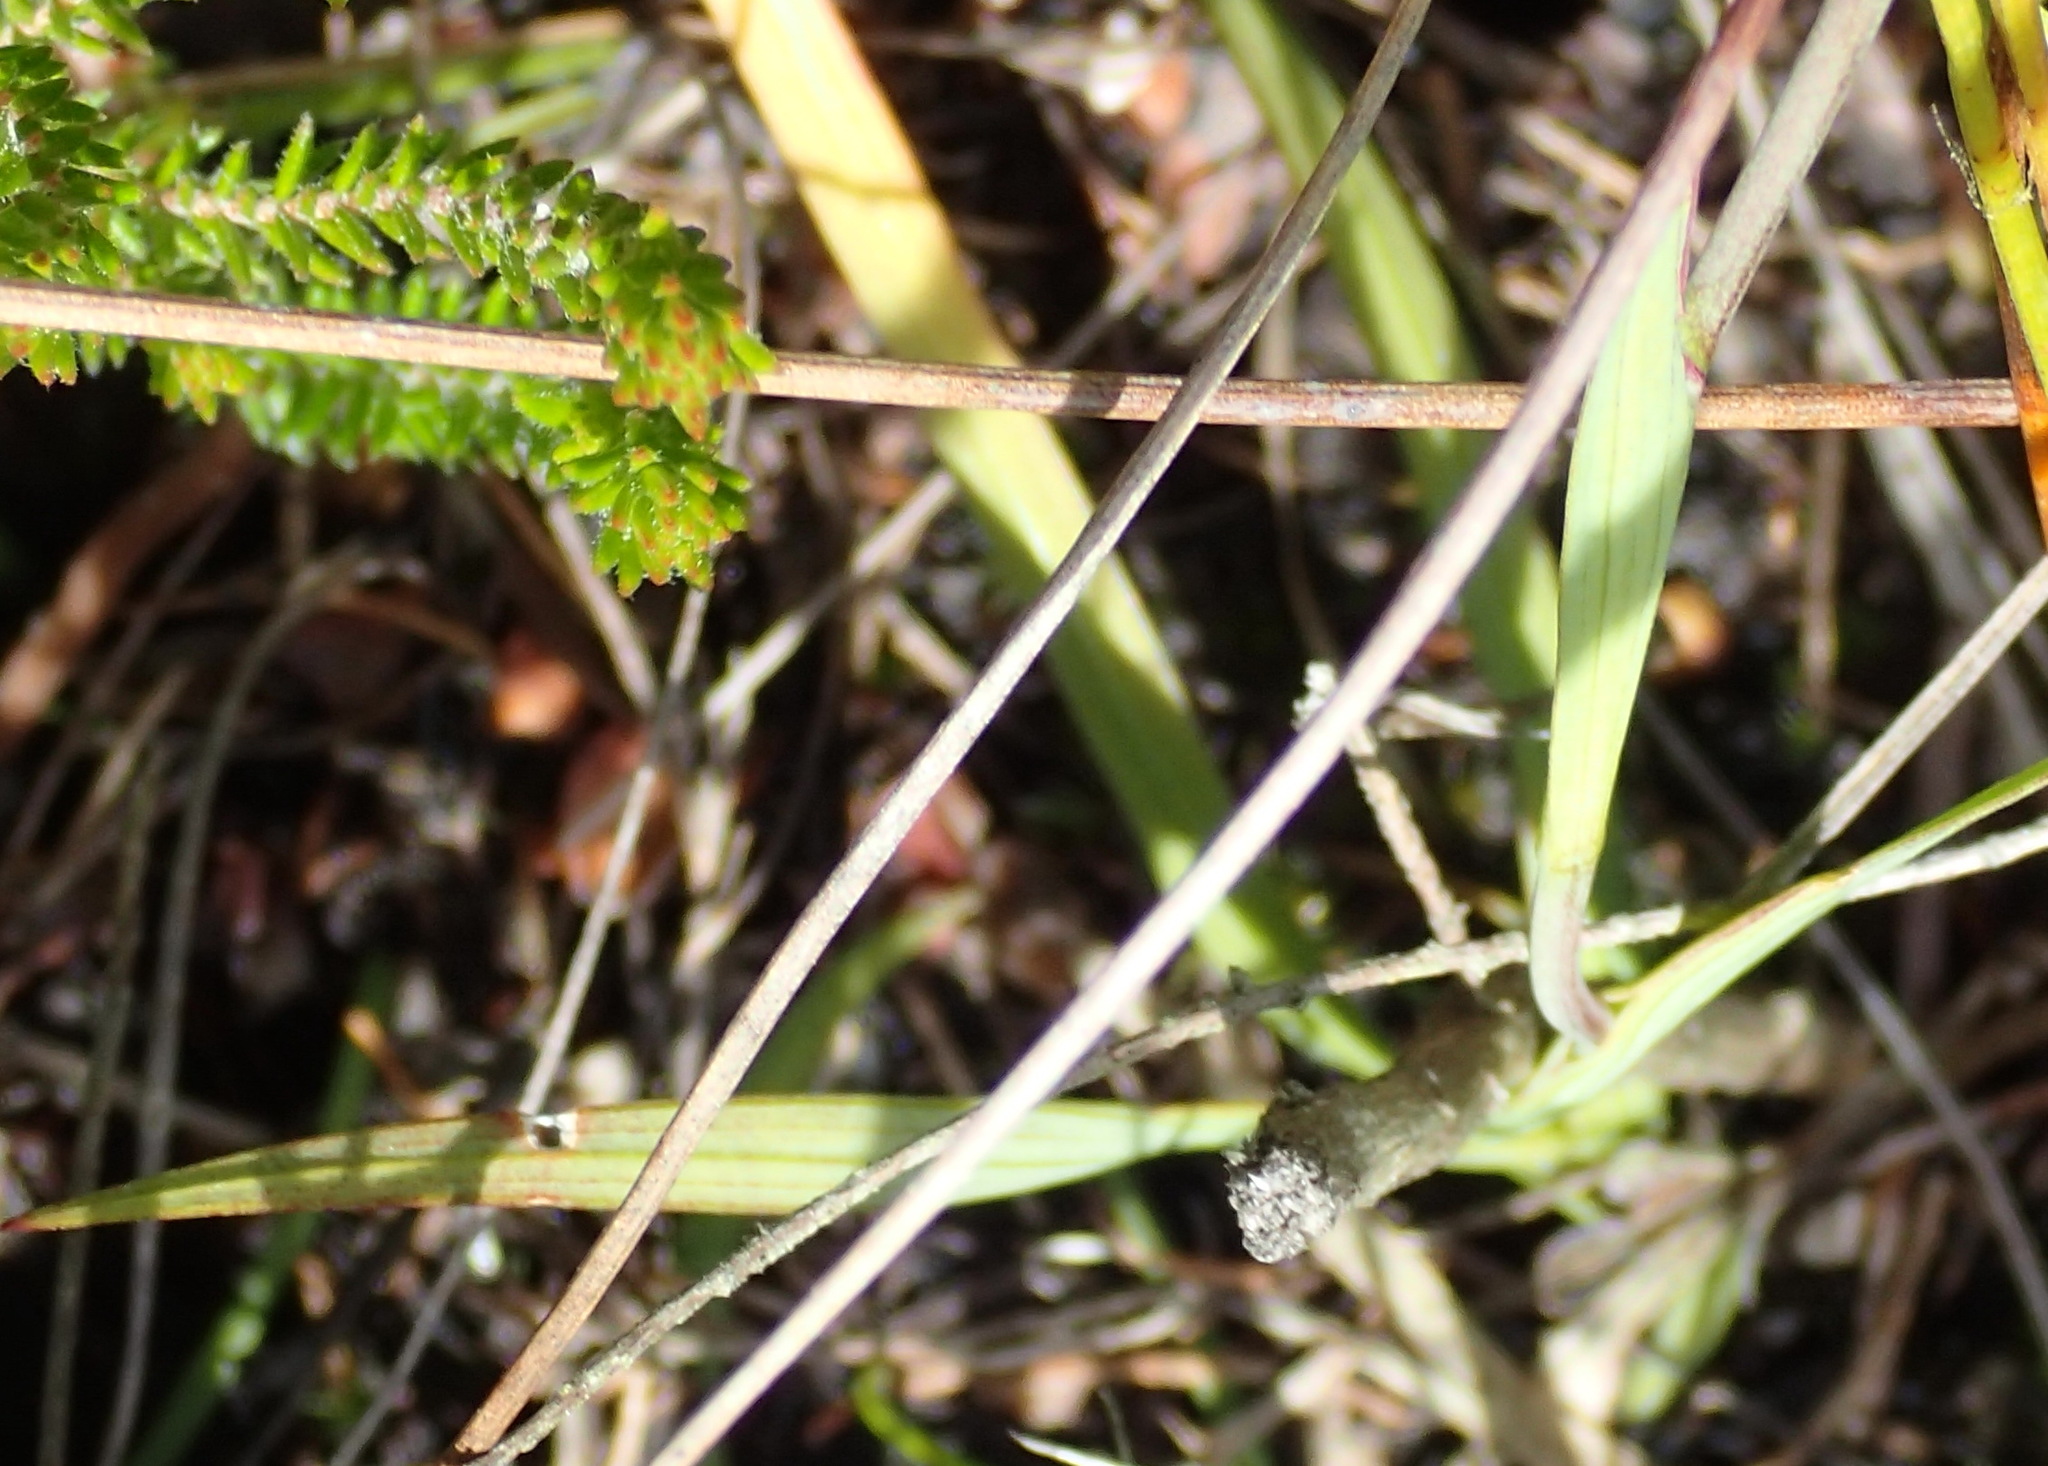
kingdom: Plantae
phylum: Tracheophyta
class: Liliopsida
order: Asparagales
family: Iridaceae
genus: Geissorhiza
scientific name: Geissorhiza inconspicua
